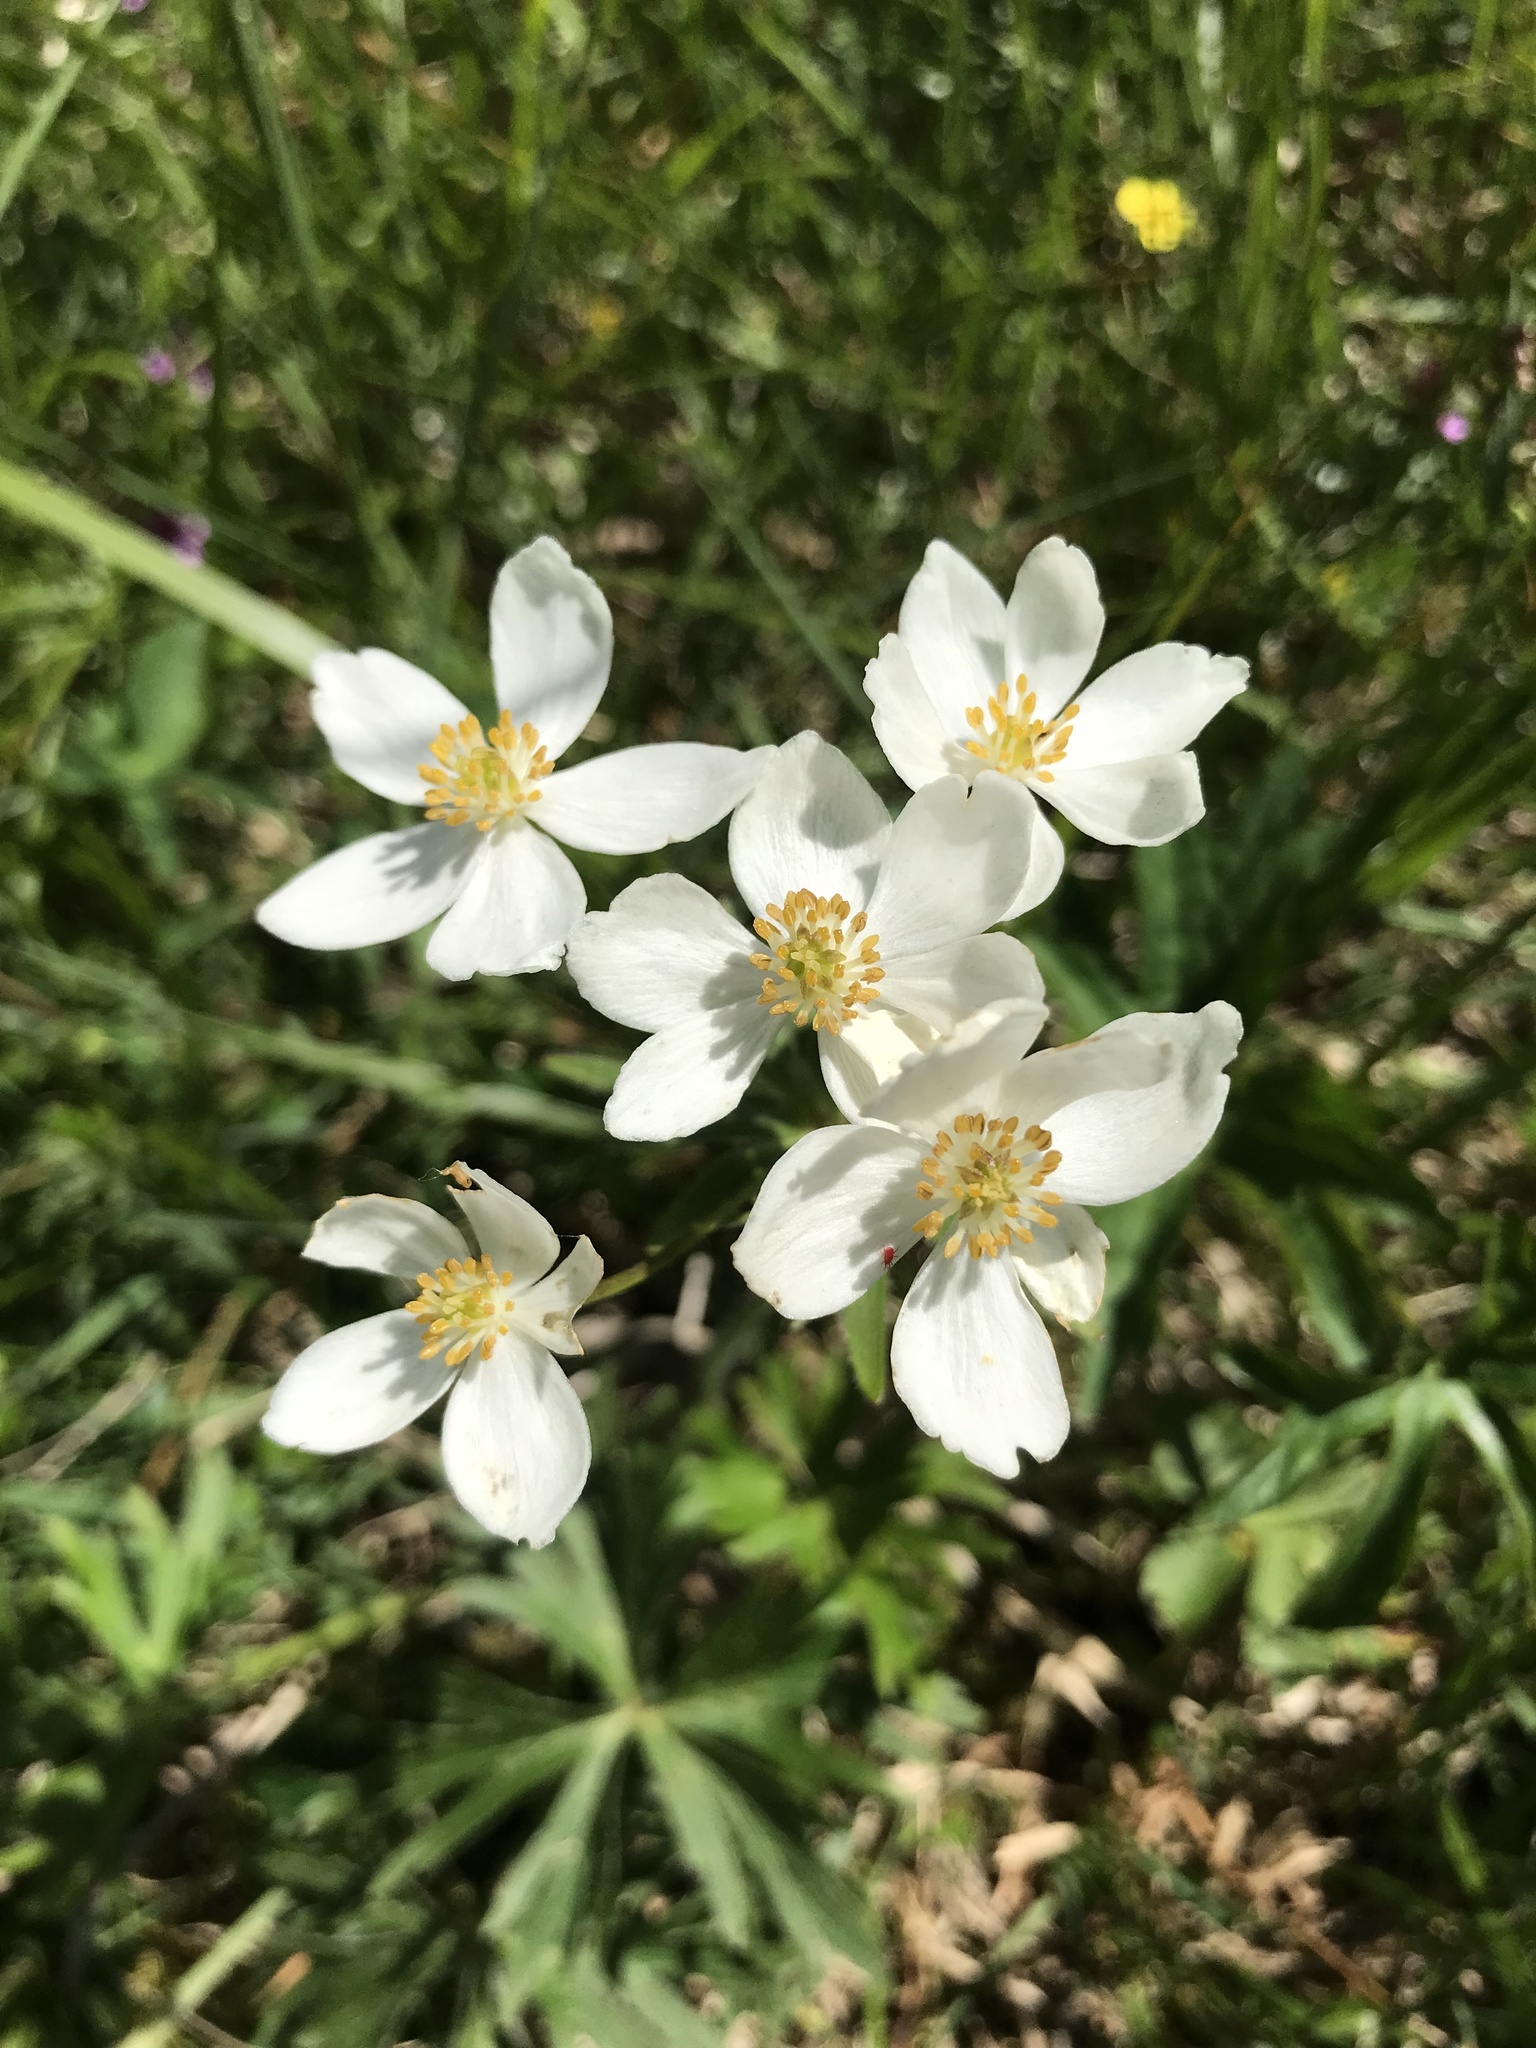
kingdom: Plantae
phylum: Tracheophyta
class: Magnoliopsida
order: Ranunculales
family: Ranunculaceae
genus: Anemonastrum
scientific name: Anemonastrum narcissiflorum
